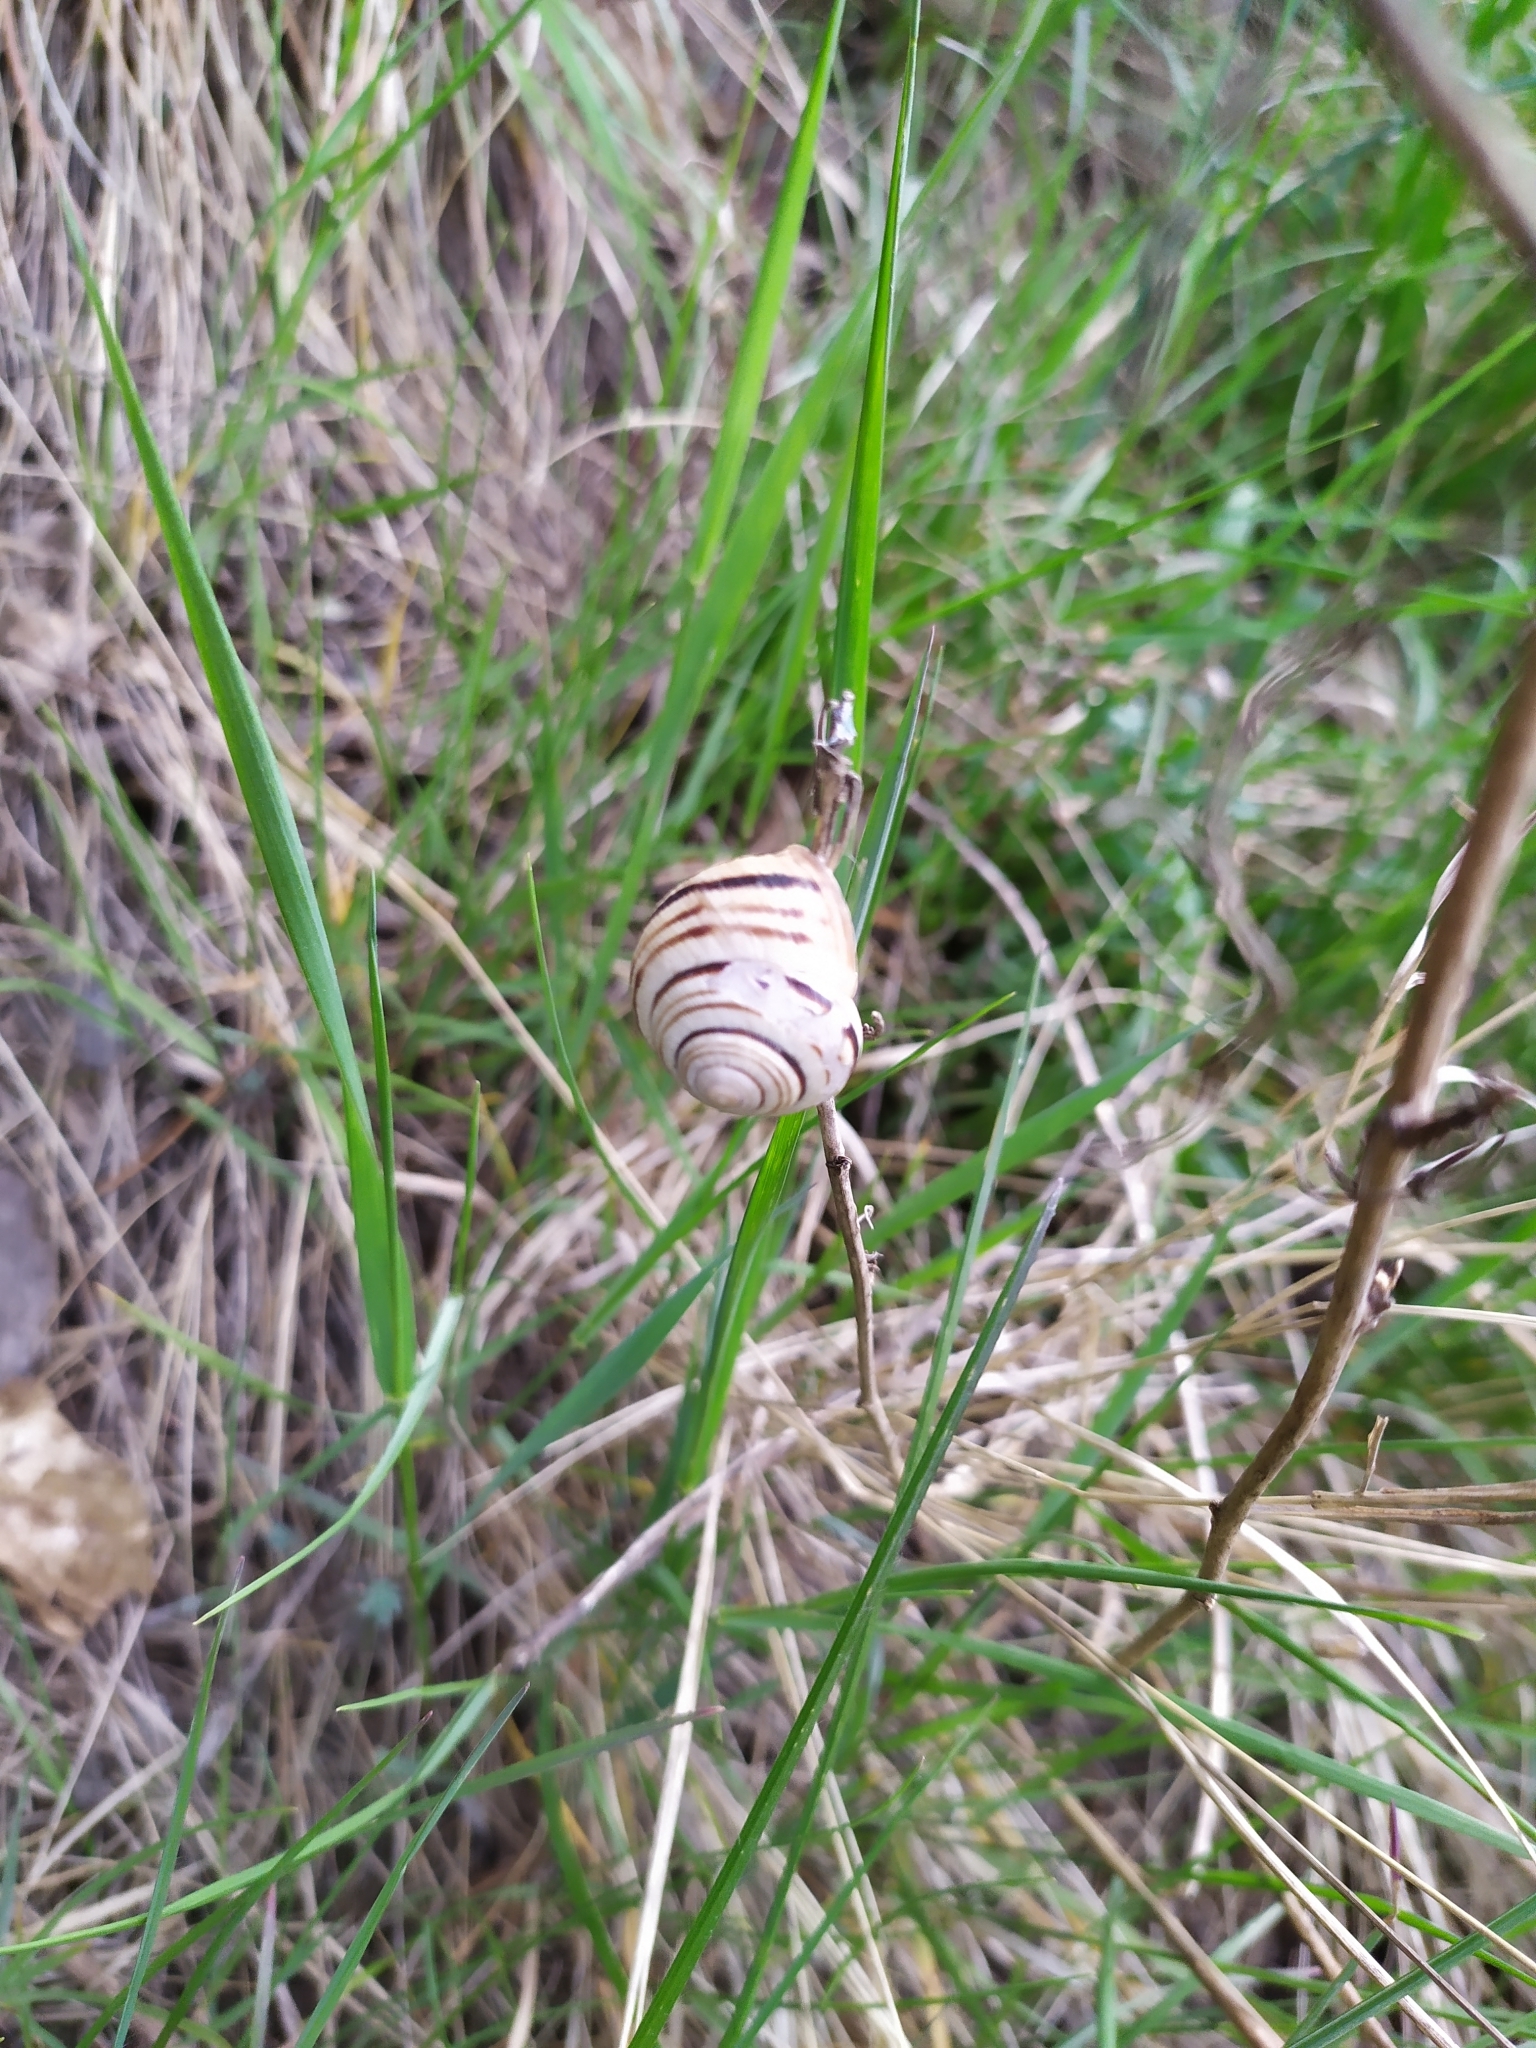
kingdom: Animalia
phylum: Mollusca
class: Gastropoda
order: Stylommatophora
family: Helicidae
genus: Caucasotachea
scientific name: Caucasotachea vindobonensis
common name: European helicid land snail
